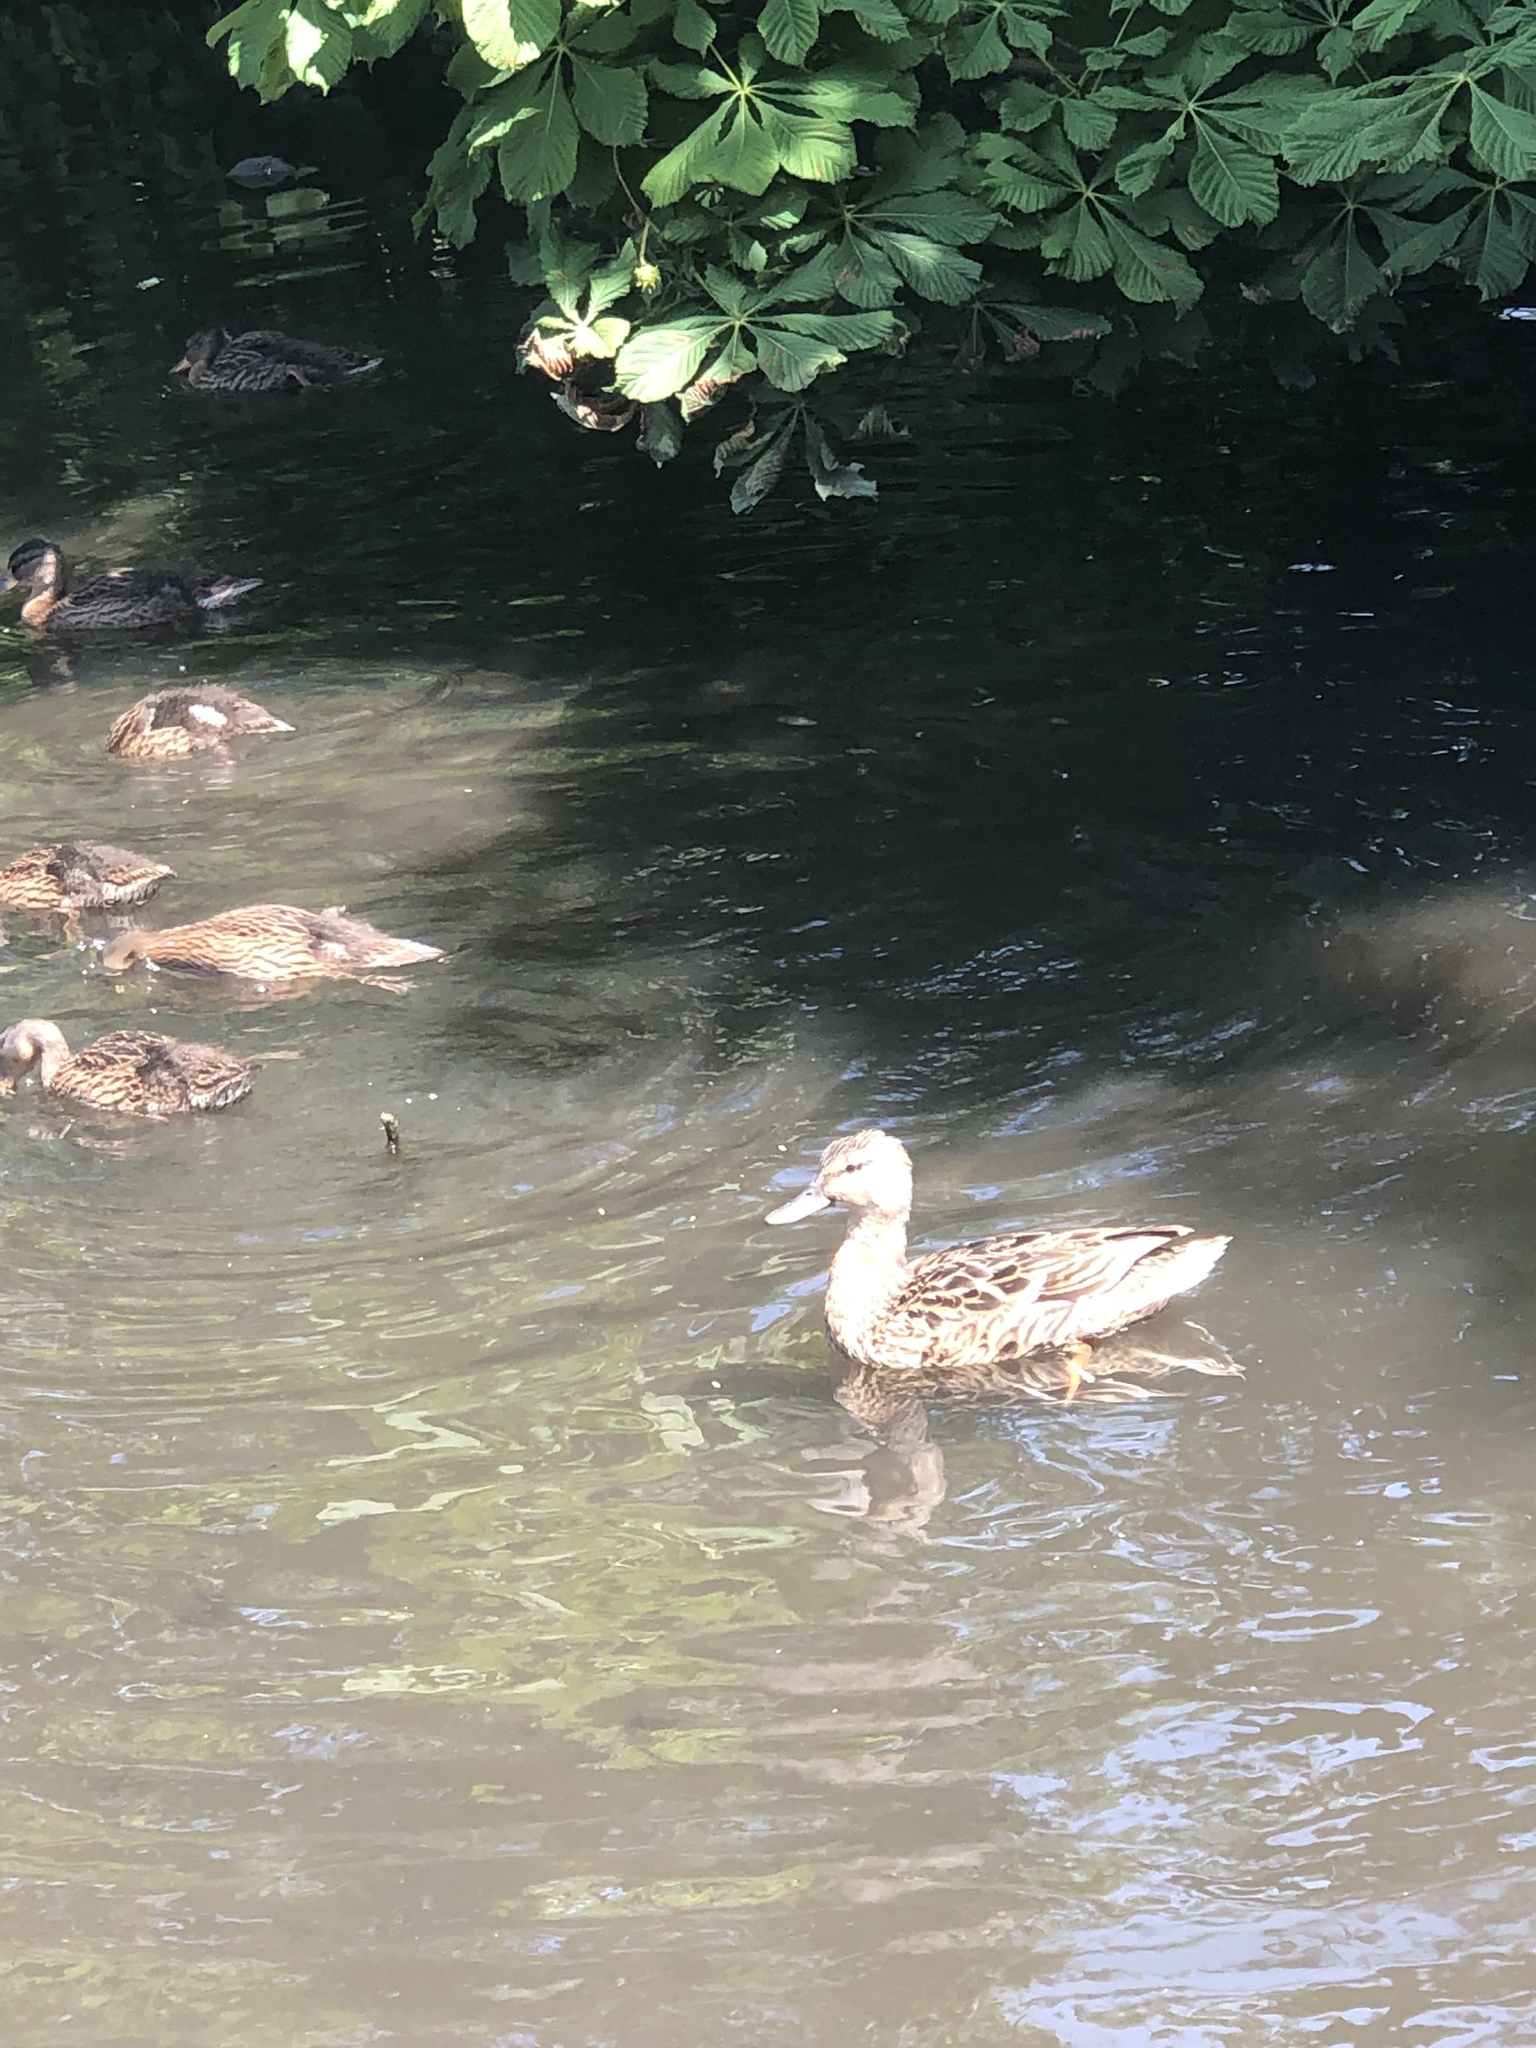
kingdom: Animalia
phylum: Chordata
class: Aves
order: Anseriformes
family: Anatidae
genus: Anas
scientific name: Anas platyrhynchos
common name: Mallard
